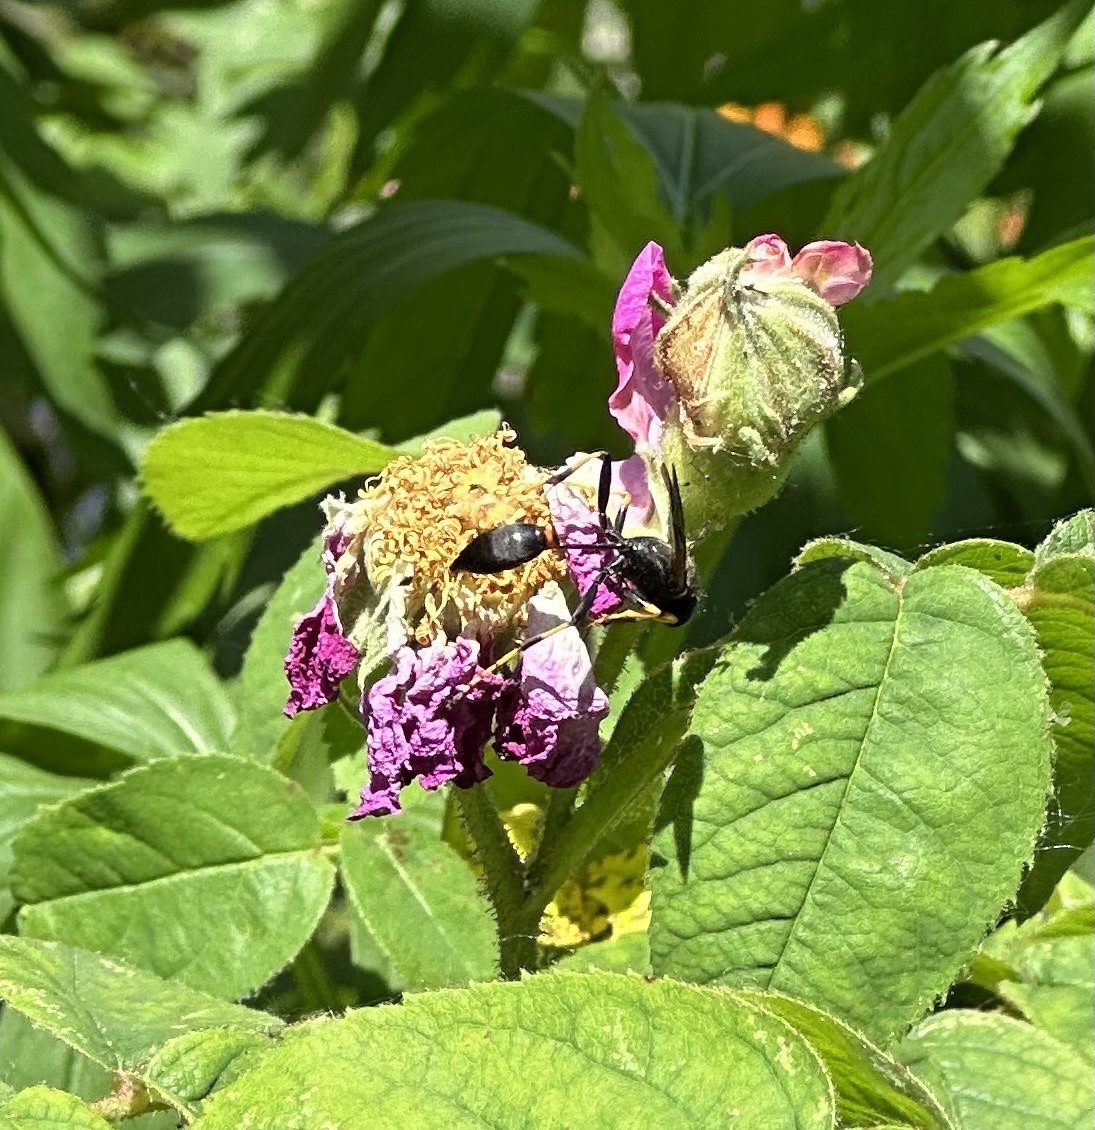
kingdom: Animalia
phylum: Arthropoda
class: Insecta
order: Hymenoptera
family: Sphecidae
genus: Sceliphron
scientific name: Sceliphron caementarium
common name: Mud dauber
